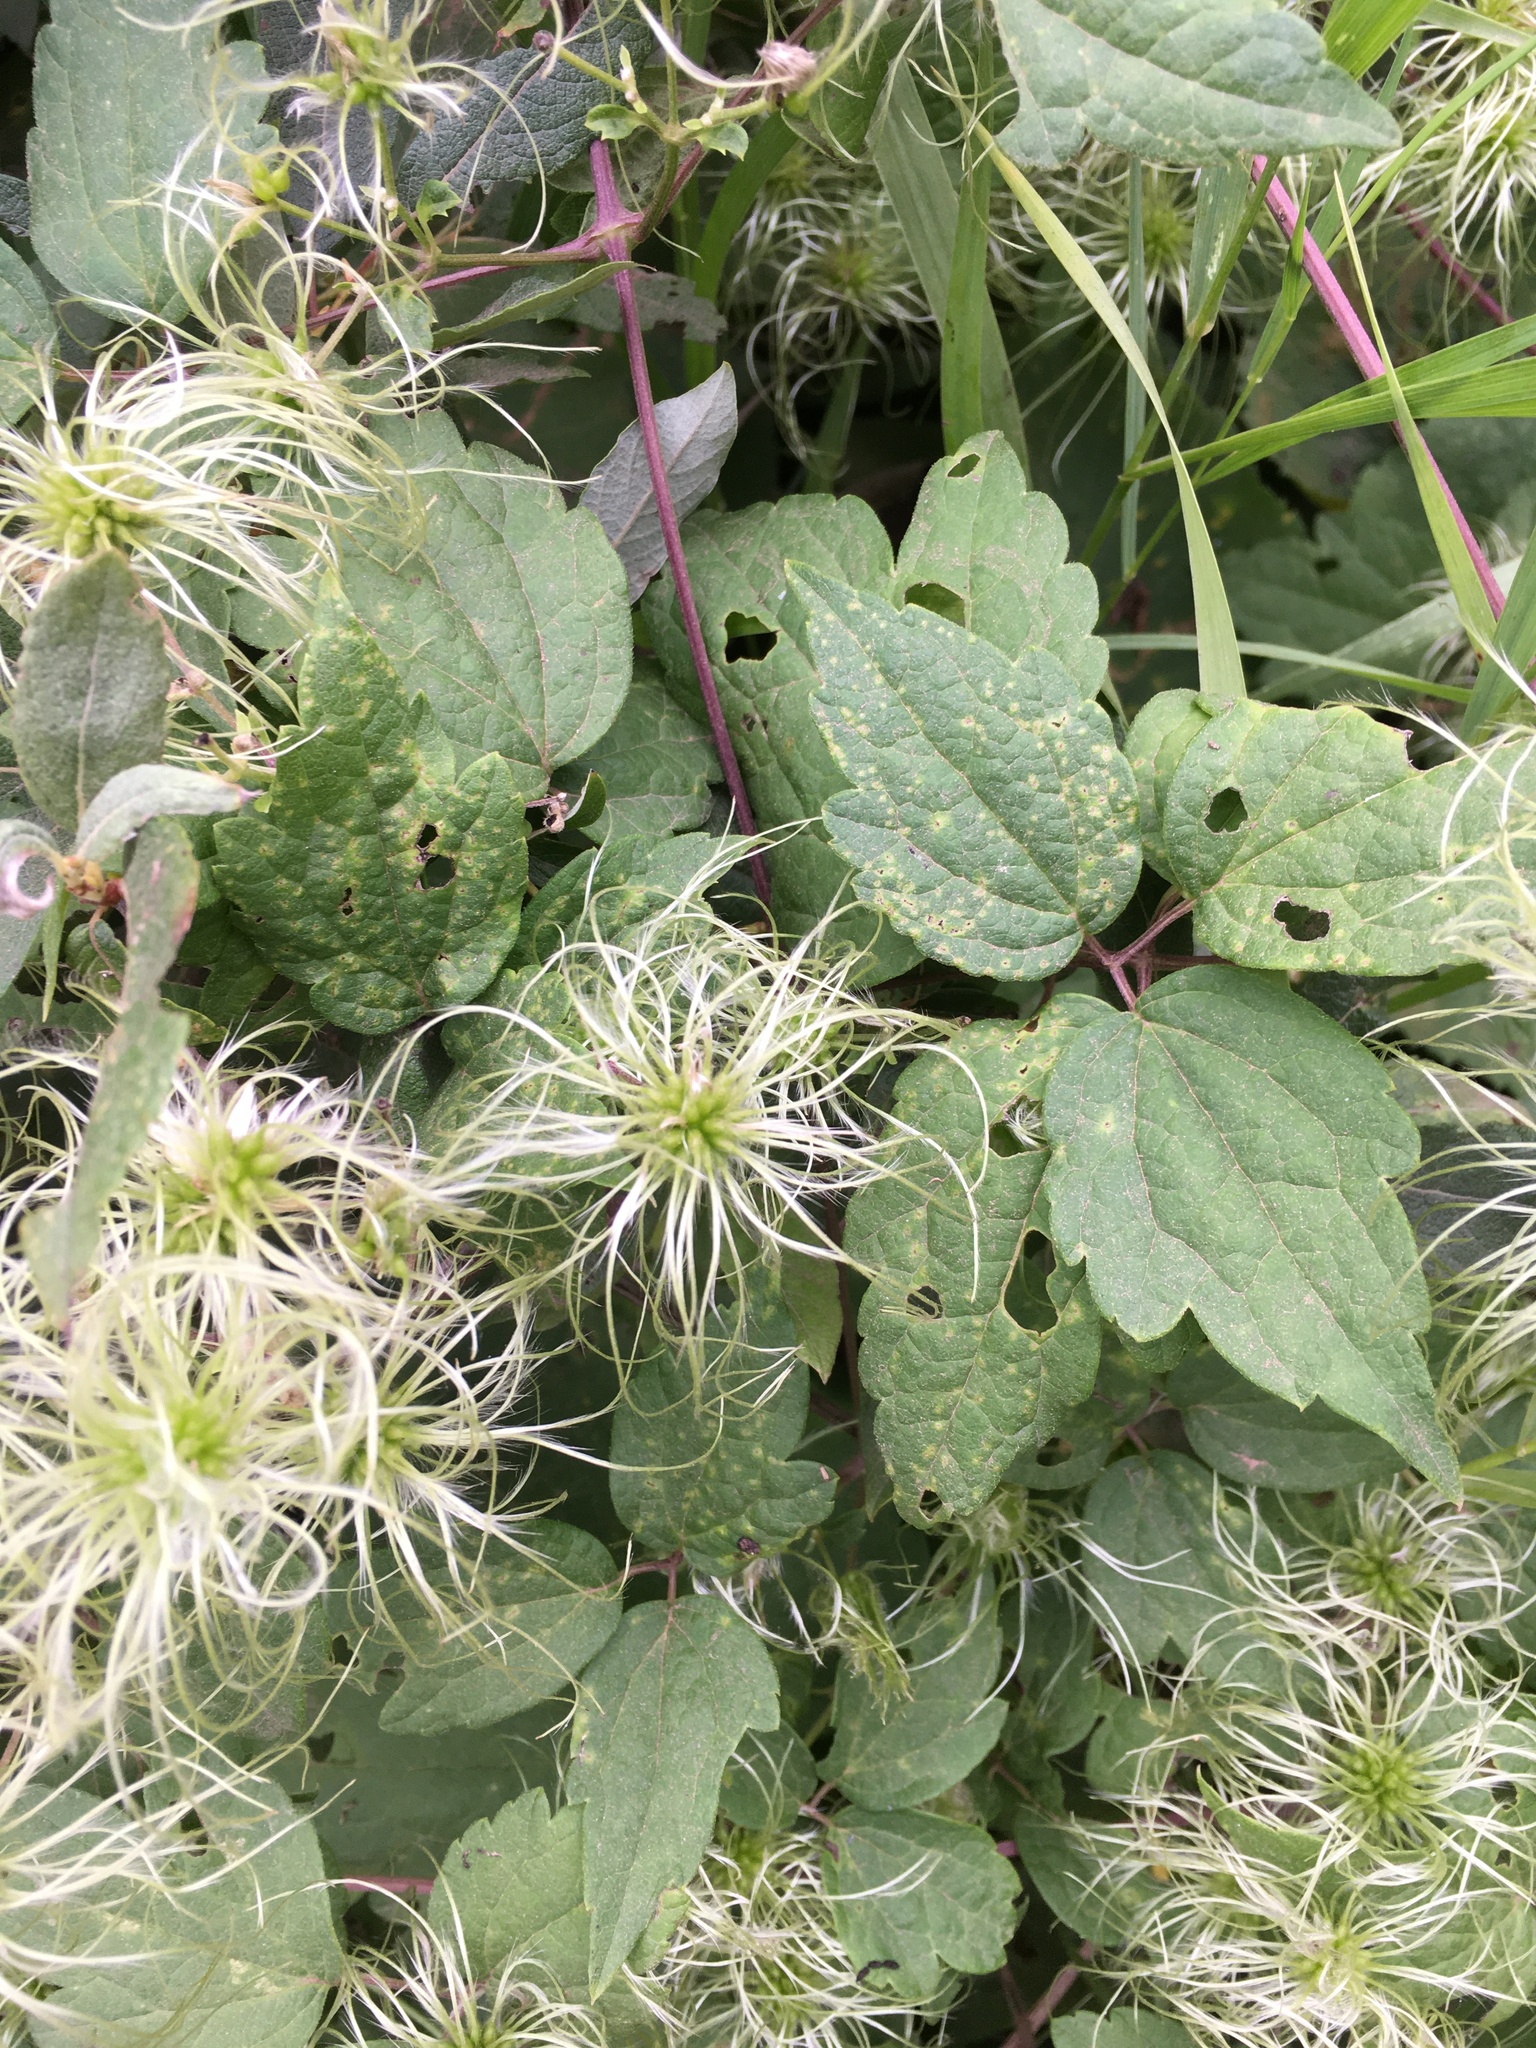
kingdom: Plantae
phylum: Tracheophyta
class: Magnoliopsida
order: Ranunculales
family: Ranunculaceae
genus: Clematis
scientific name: Clematis virginiana
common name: Virgin's-bower
